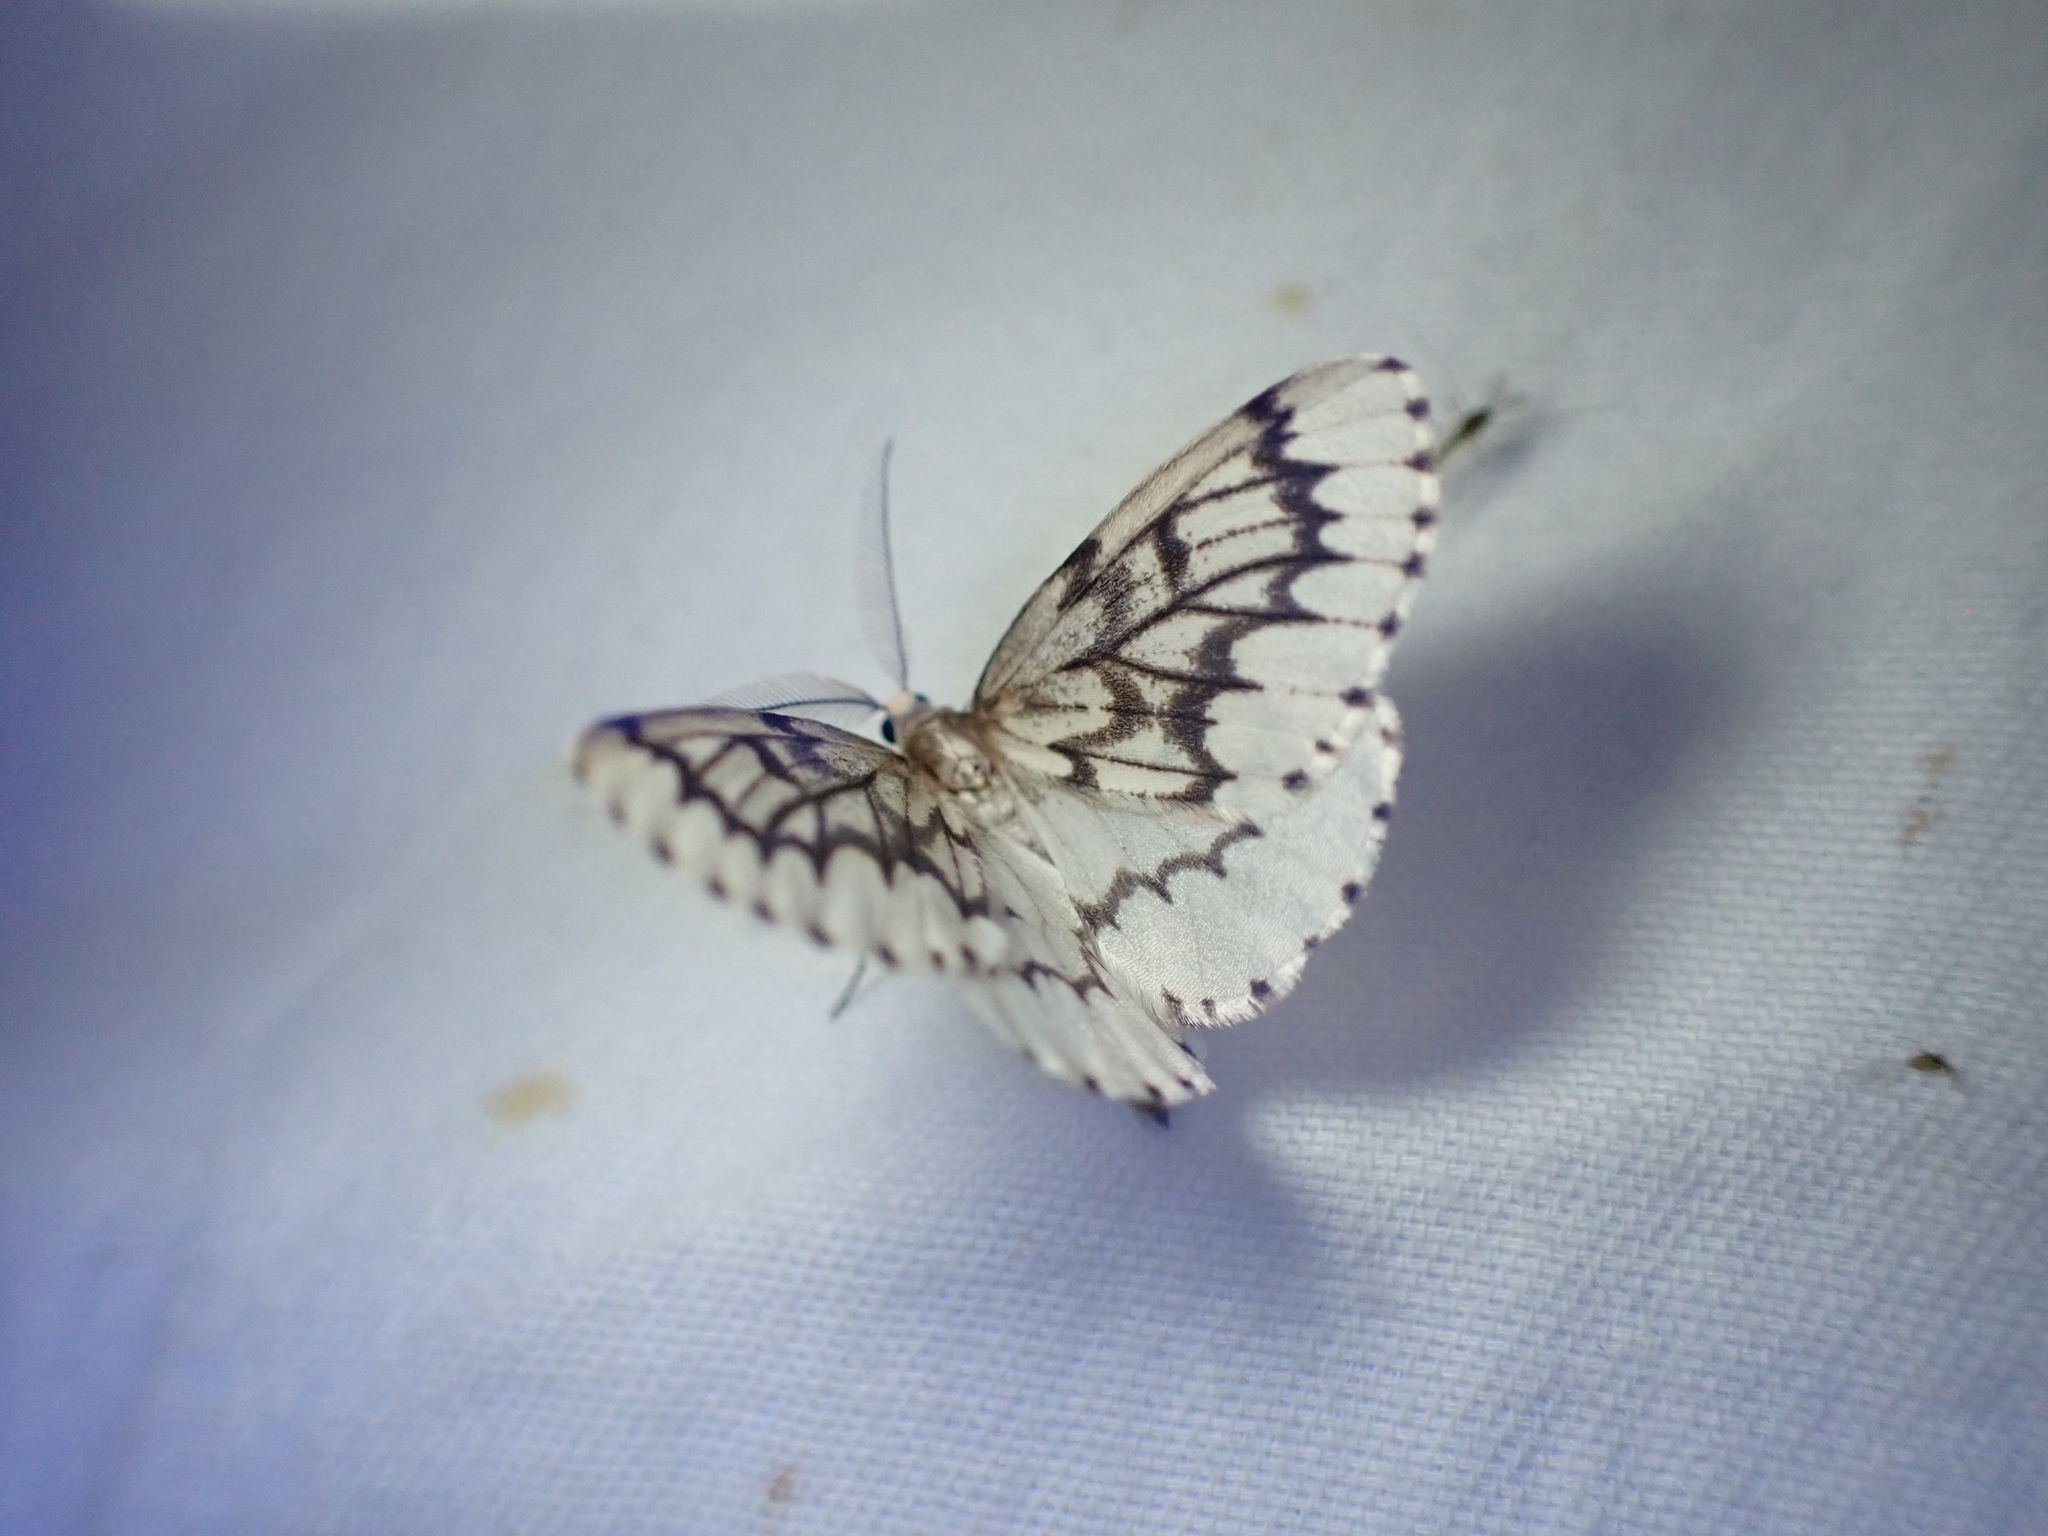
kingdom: Animalia
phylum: Arthropoda
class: Insecta
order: Lepidoptera
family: Geometridae
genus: Nepytia
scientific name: Nepytia phantasmaria
